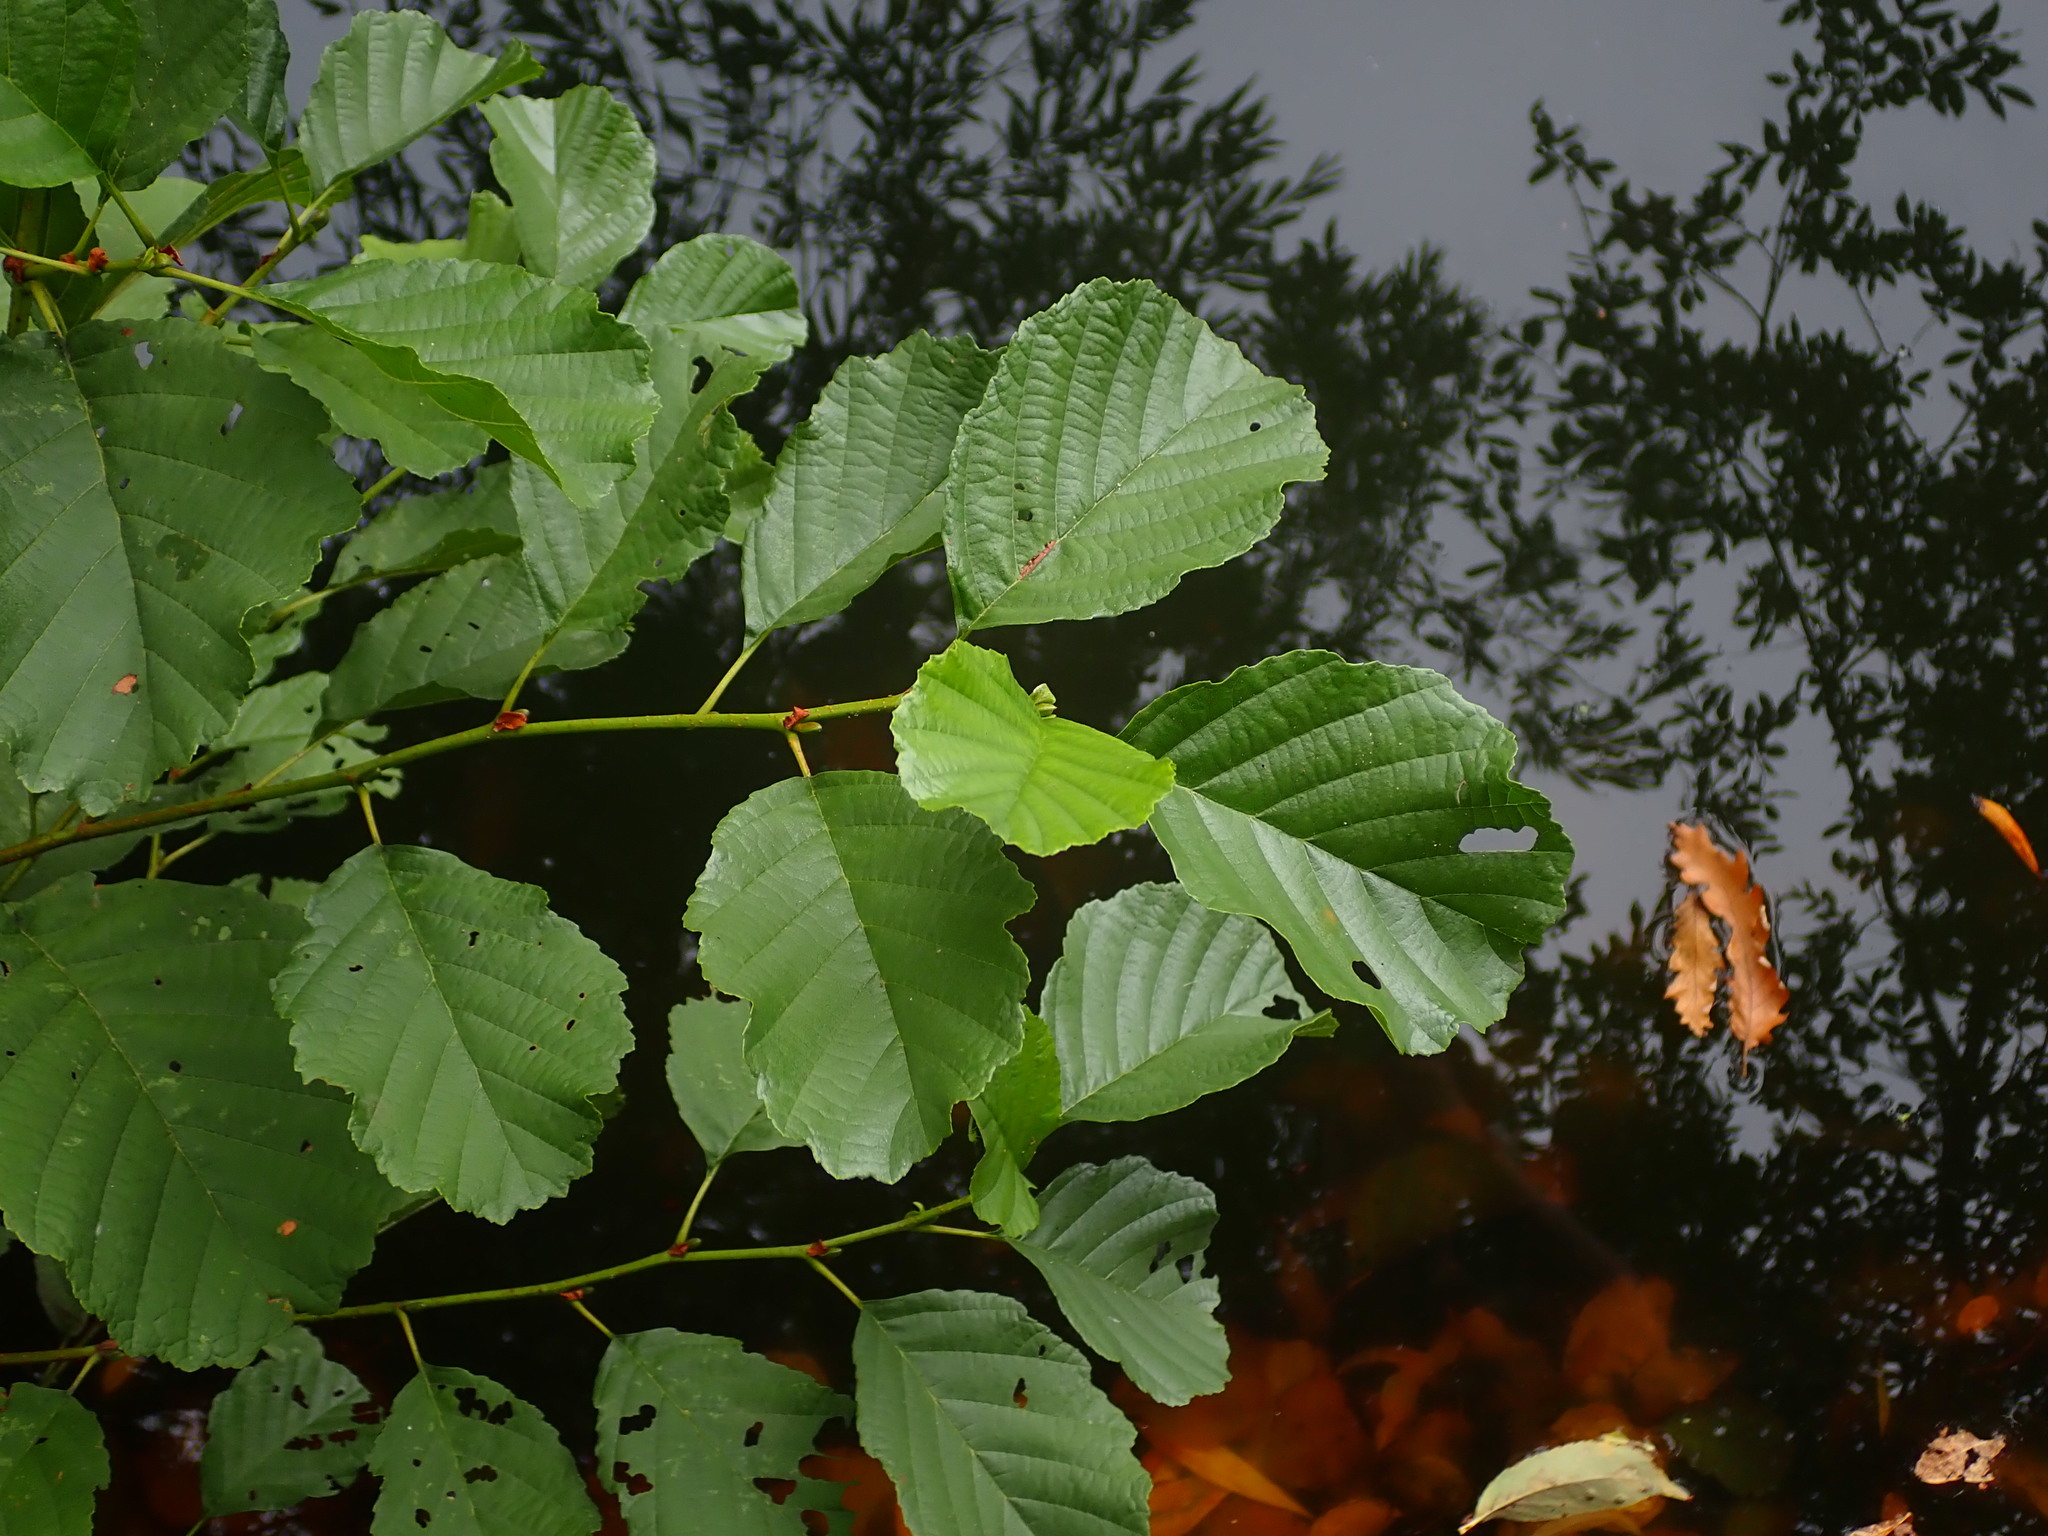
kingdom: Plantae
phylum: Tracheophyta
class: Magnoliopsida
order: Fagales
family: Betulaceae
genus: Alnus
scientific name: Alnus glutinosa
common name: Black alder
